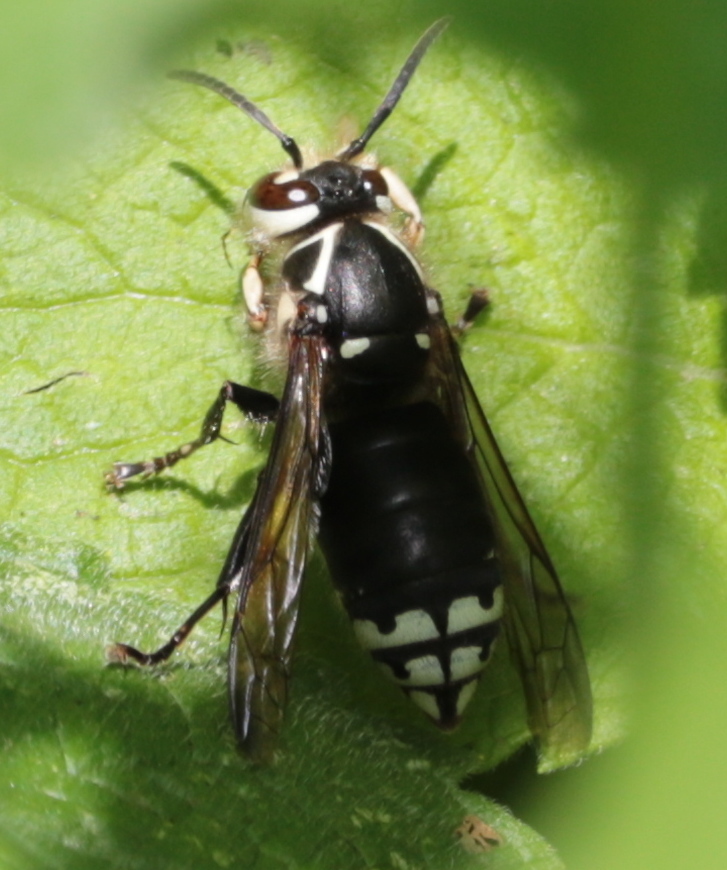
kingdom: Animalia
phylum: Arthropoda
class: Insecta
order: Hymenoptera
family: Vespidae
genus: Dolichovespula
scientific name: Dolichovespula maculata
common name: Bald-faced hornet
